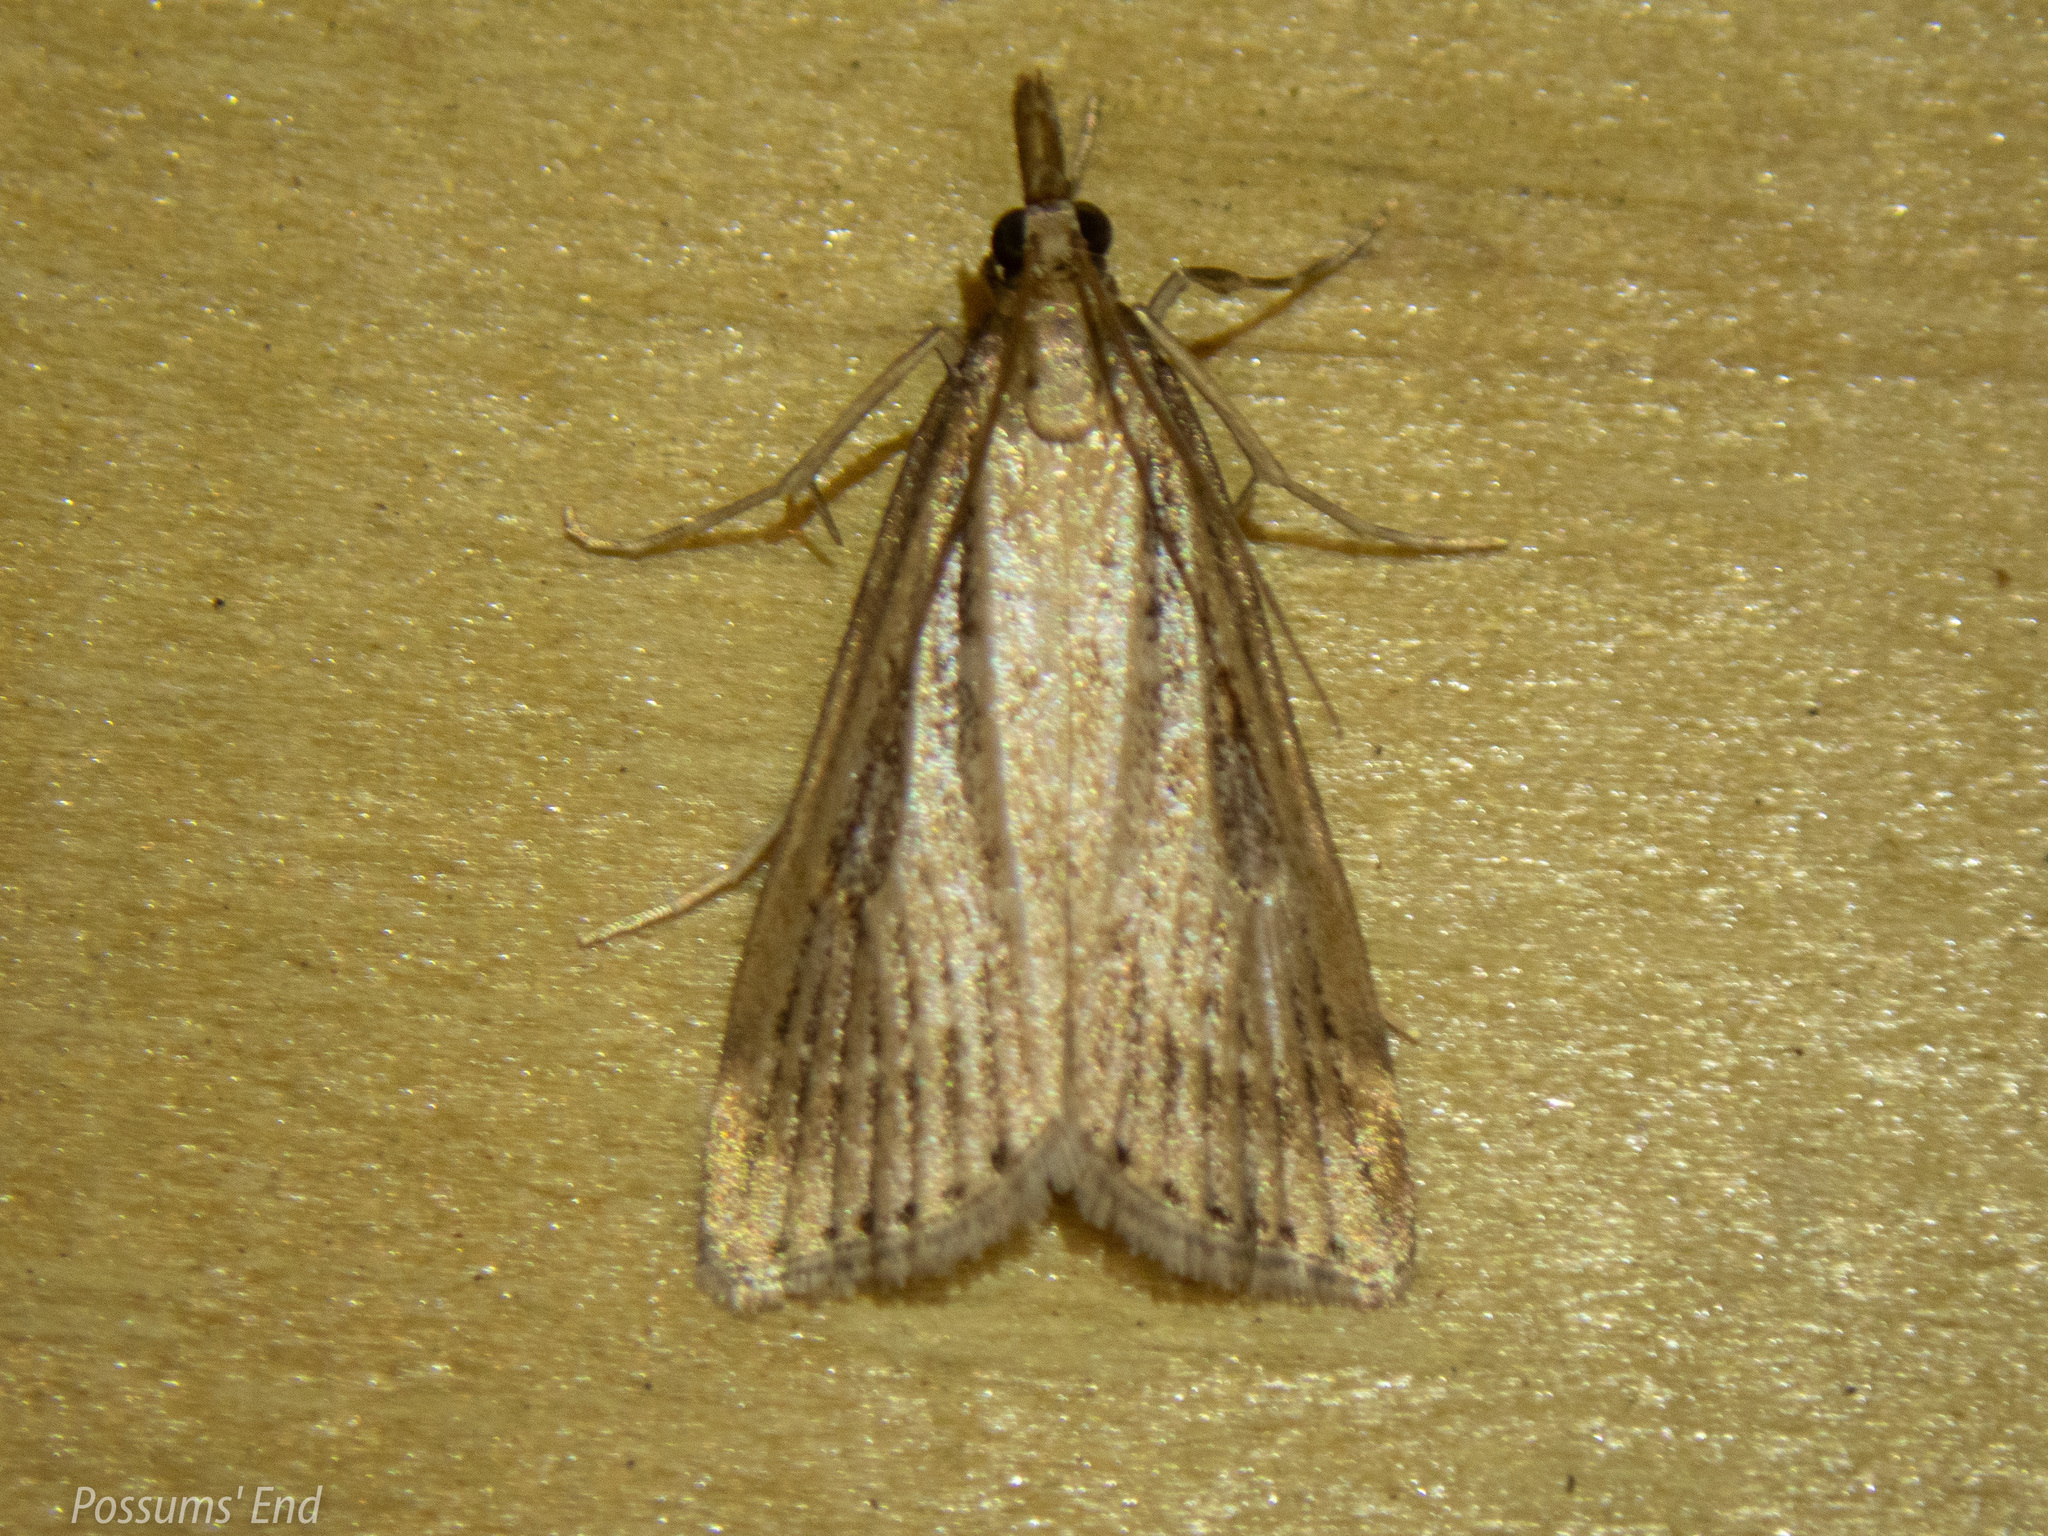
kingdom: Animalia
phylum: Arthropoda
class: Insecta
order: Lepidoptera
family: Crambidae
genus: Eudonia
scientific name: Eudonia octophora
